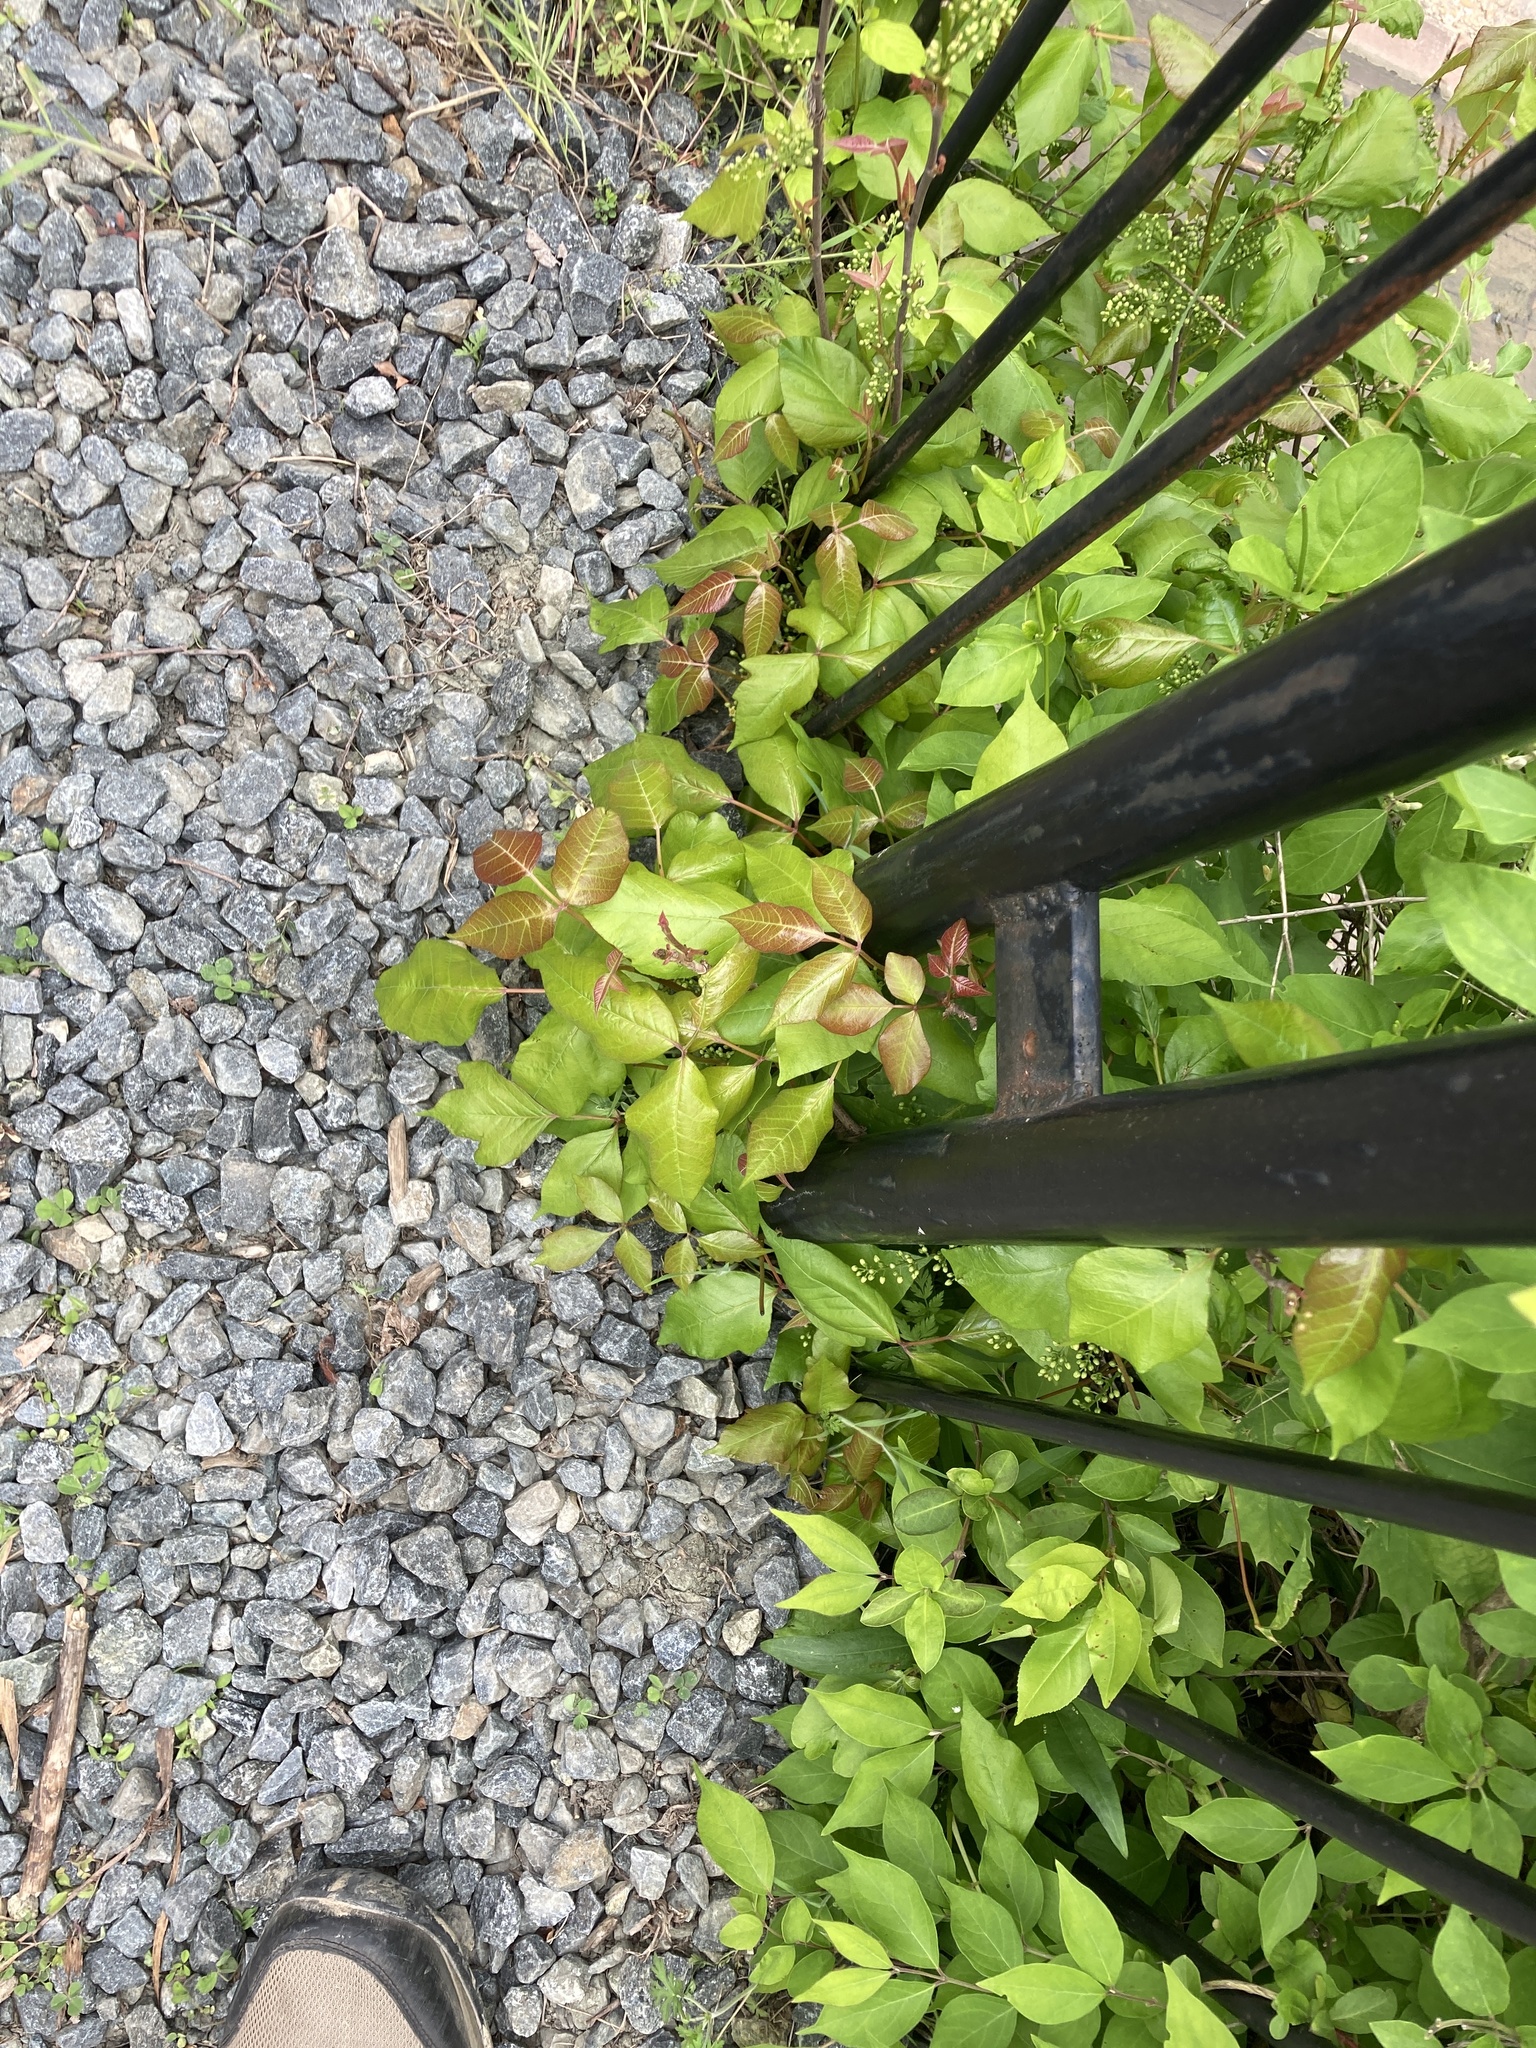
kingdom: Plantae
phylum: Tracheophyta
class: Magnoliopsida
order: Sapindales
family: Anacardiaceae
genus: Toxicodendron
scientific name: Toxicodendron radicans
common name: Poison ivy
